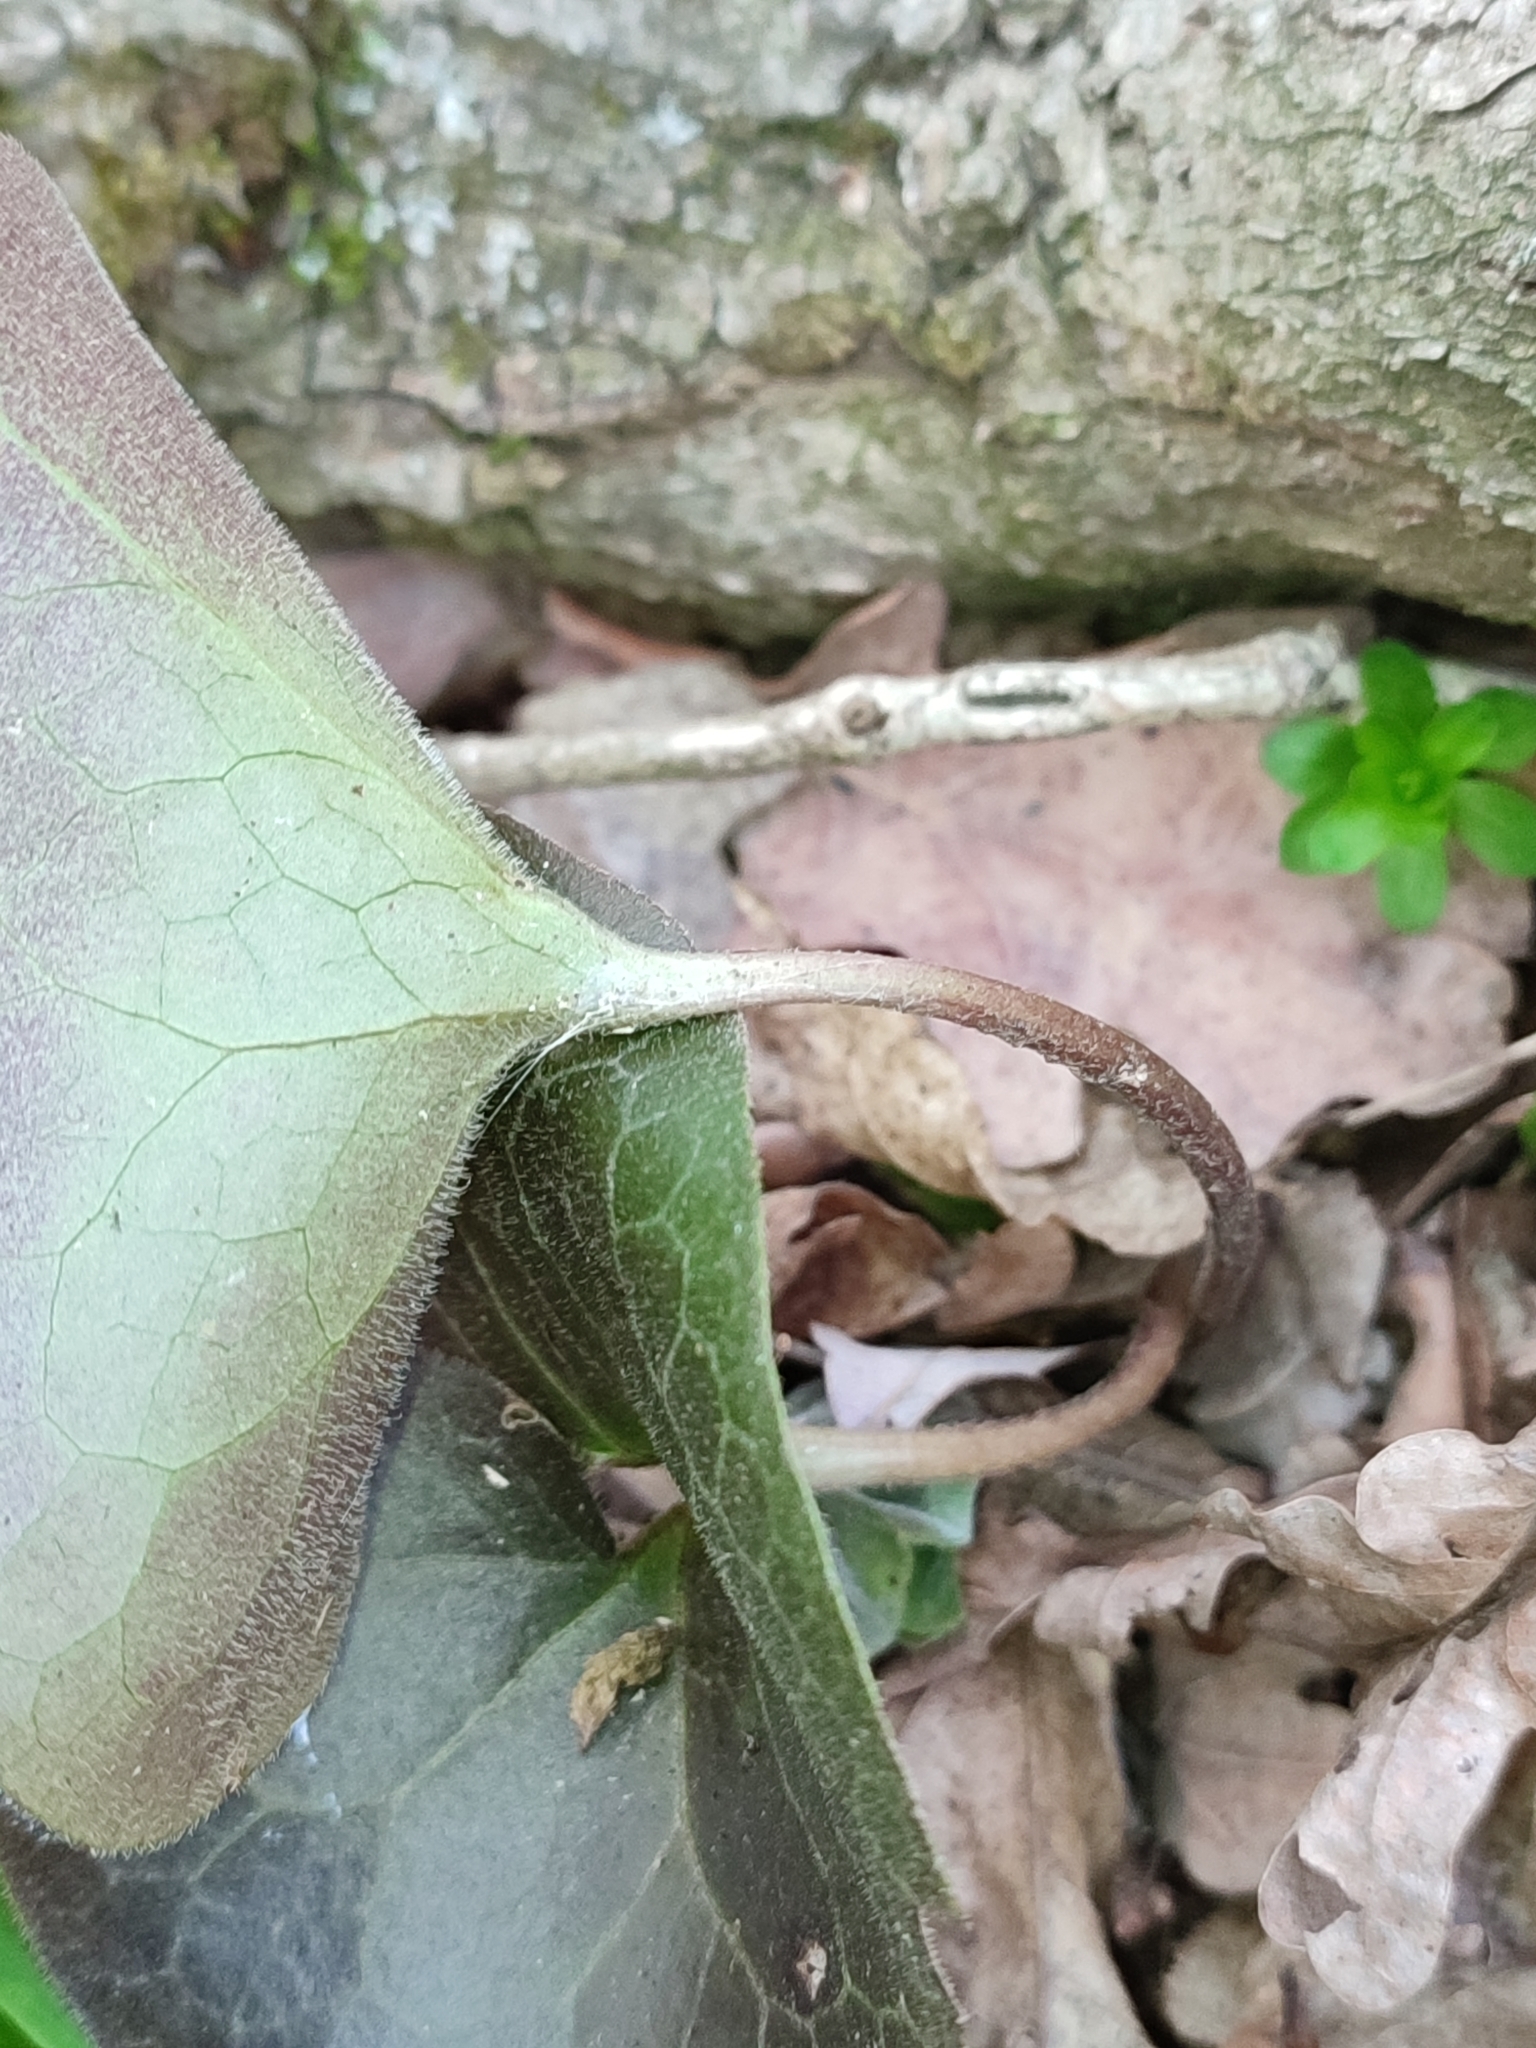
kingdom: Plantae
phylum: Tracheophyta
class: Magnoliopsida
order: Piperales
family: Aristolochiaceae
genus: Asarum
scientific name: Asarum europaeum
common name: Asarabacca
